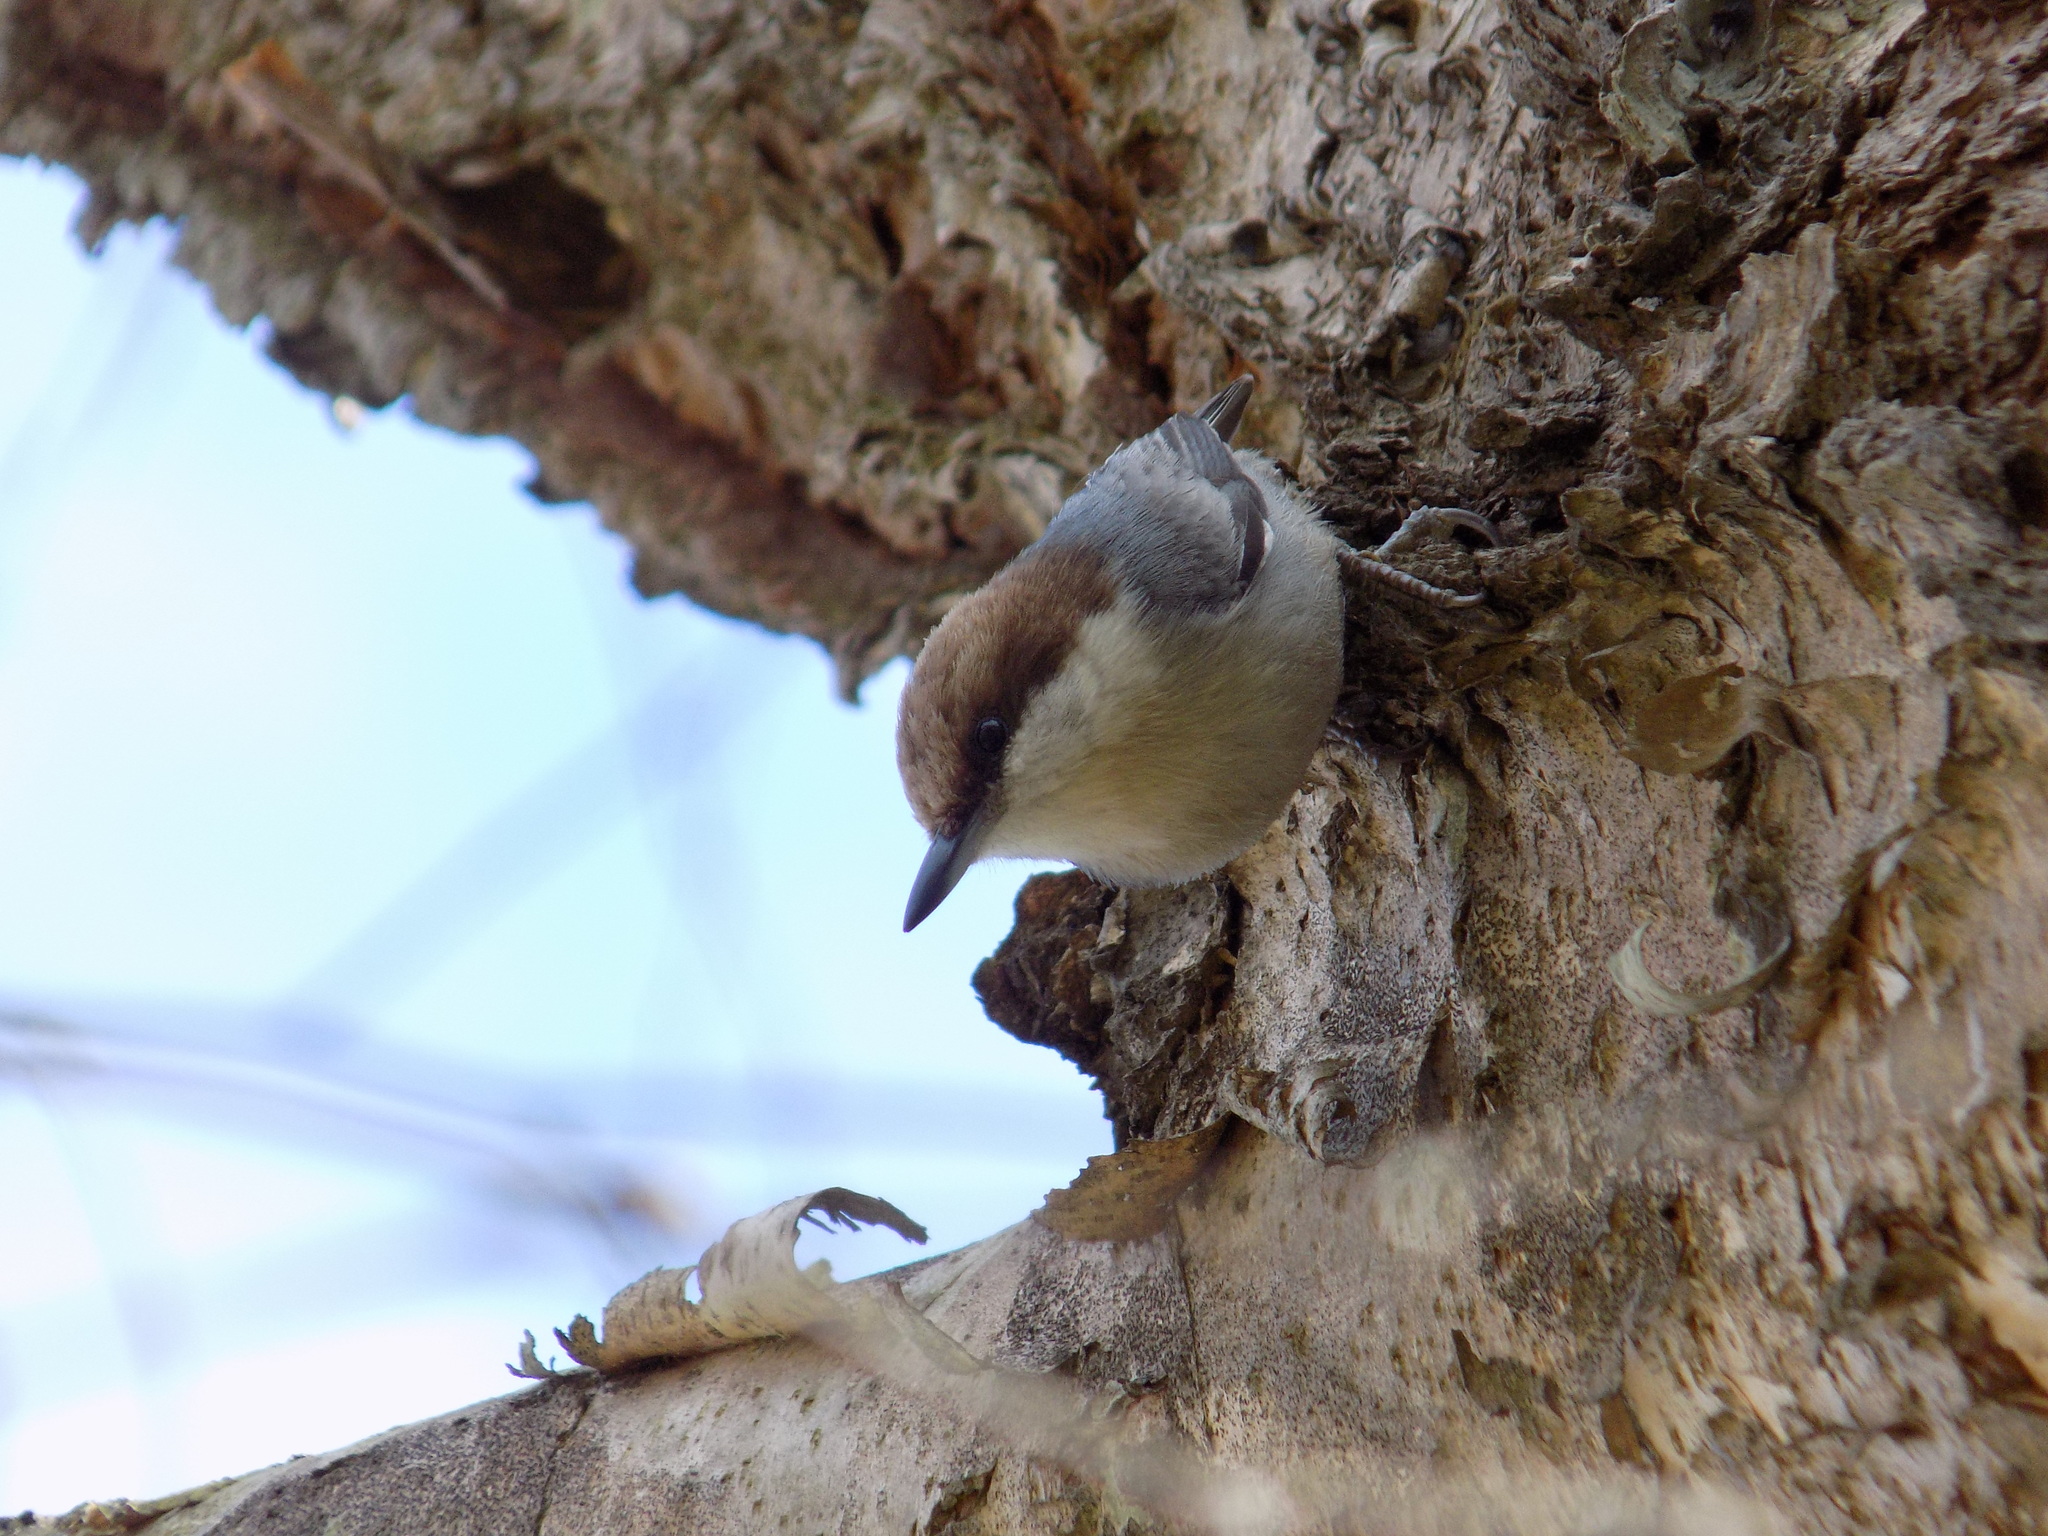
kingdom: Animalia
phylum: Chordata
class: Aves
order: Passeriformes
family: Sittidae
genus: Sitta
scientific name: Sitta pusilla
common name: Brown-headed nuthatch
